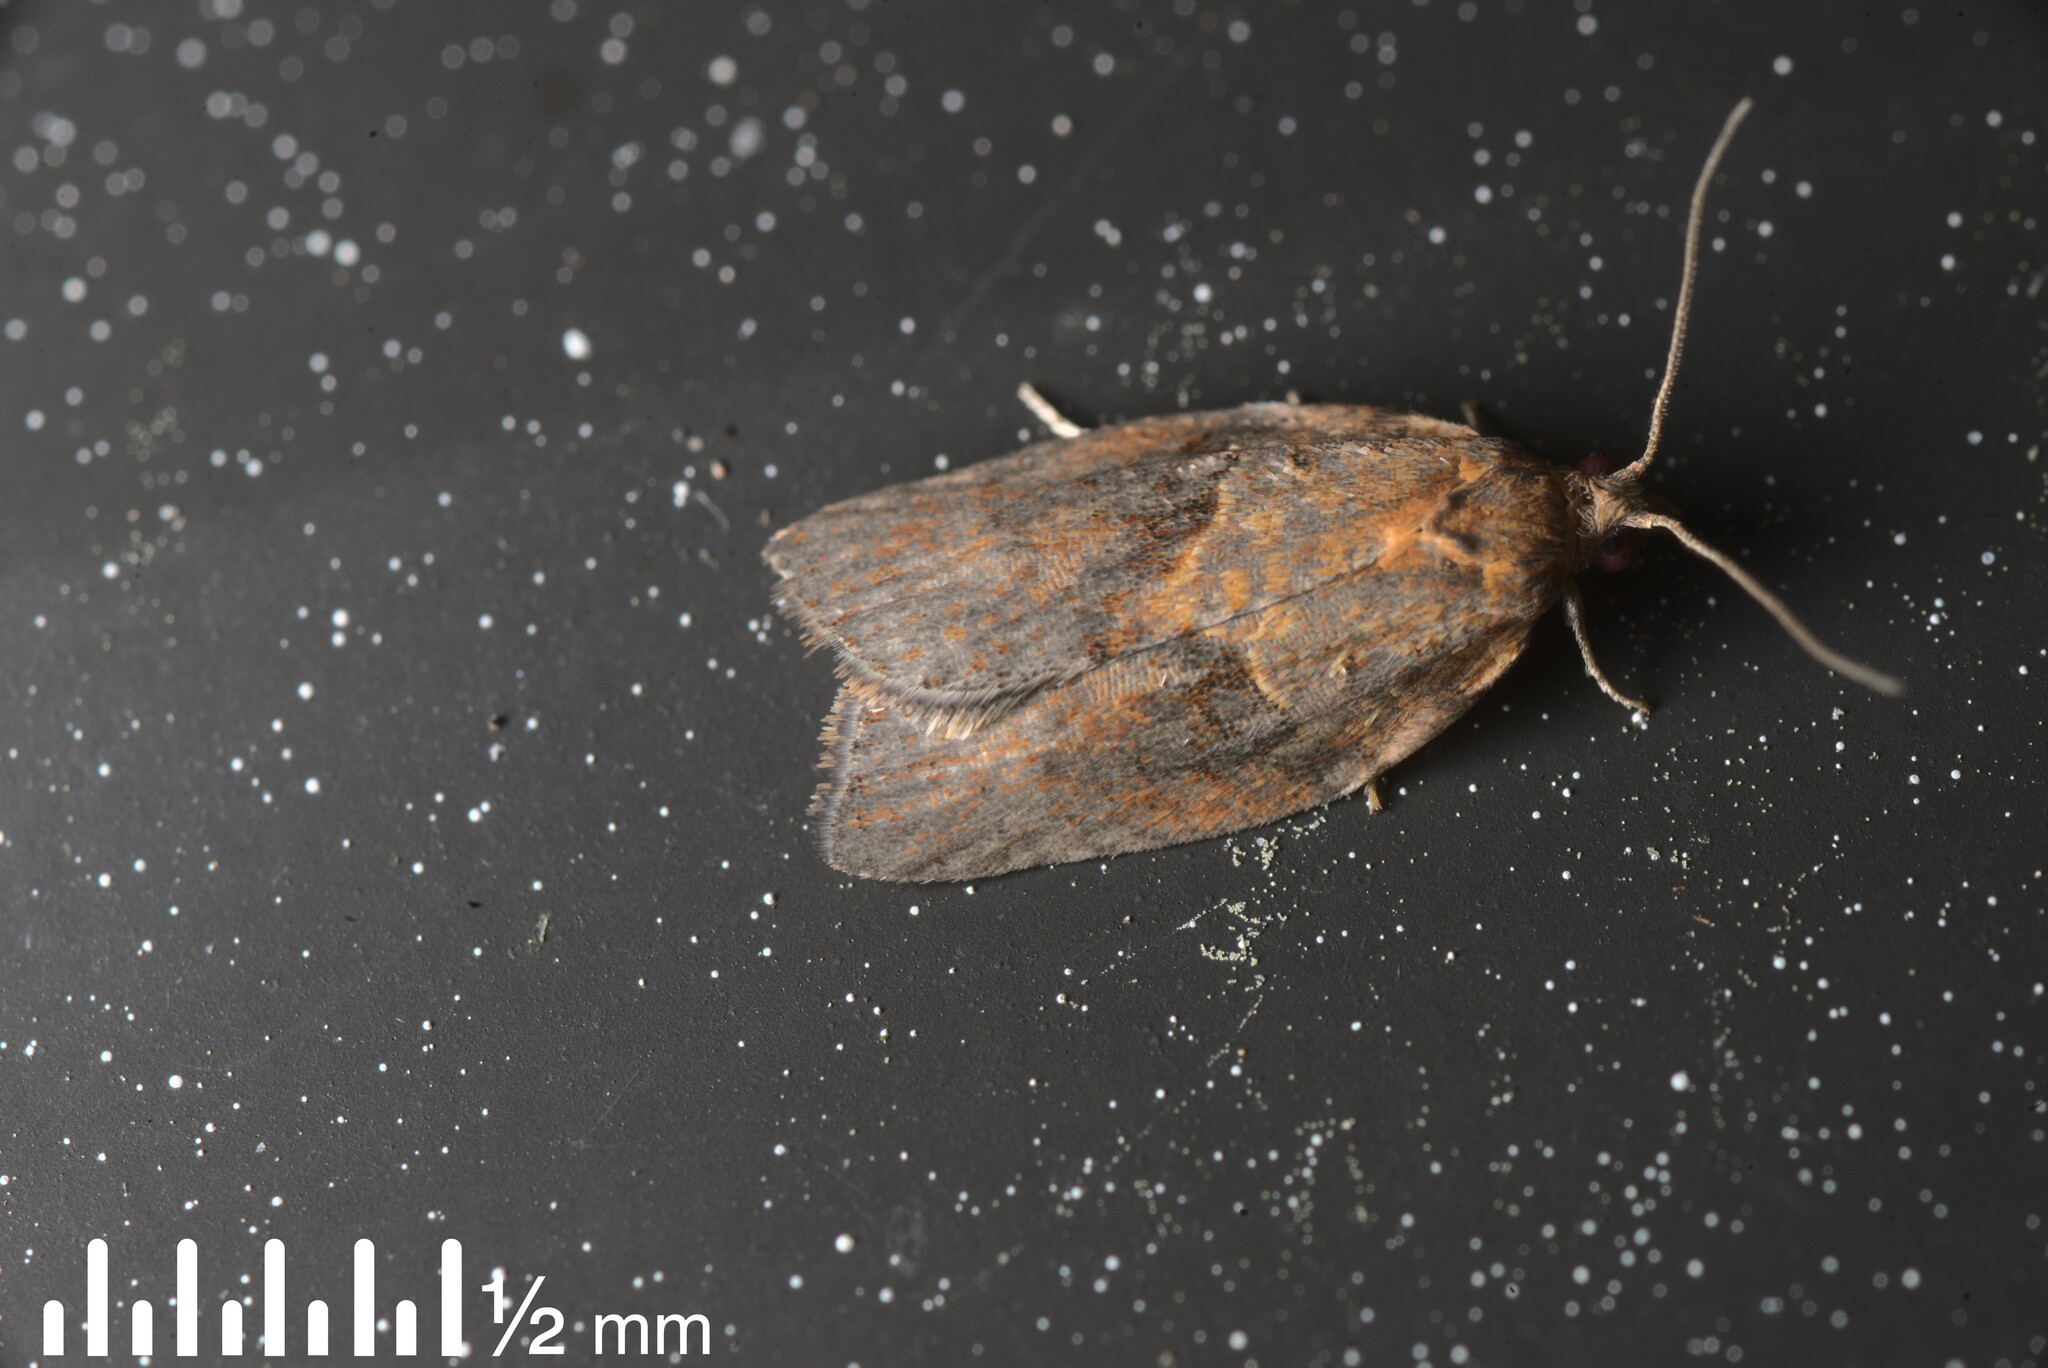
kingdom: Animalia
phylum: Arthropoda
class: Insecta
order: Lepidoptera
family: Tortricidae
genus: Epiphyas
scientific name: Epiphyas postvittana
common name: Light brown apple moth
